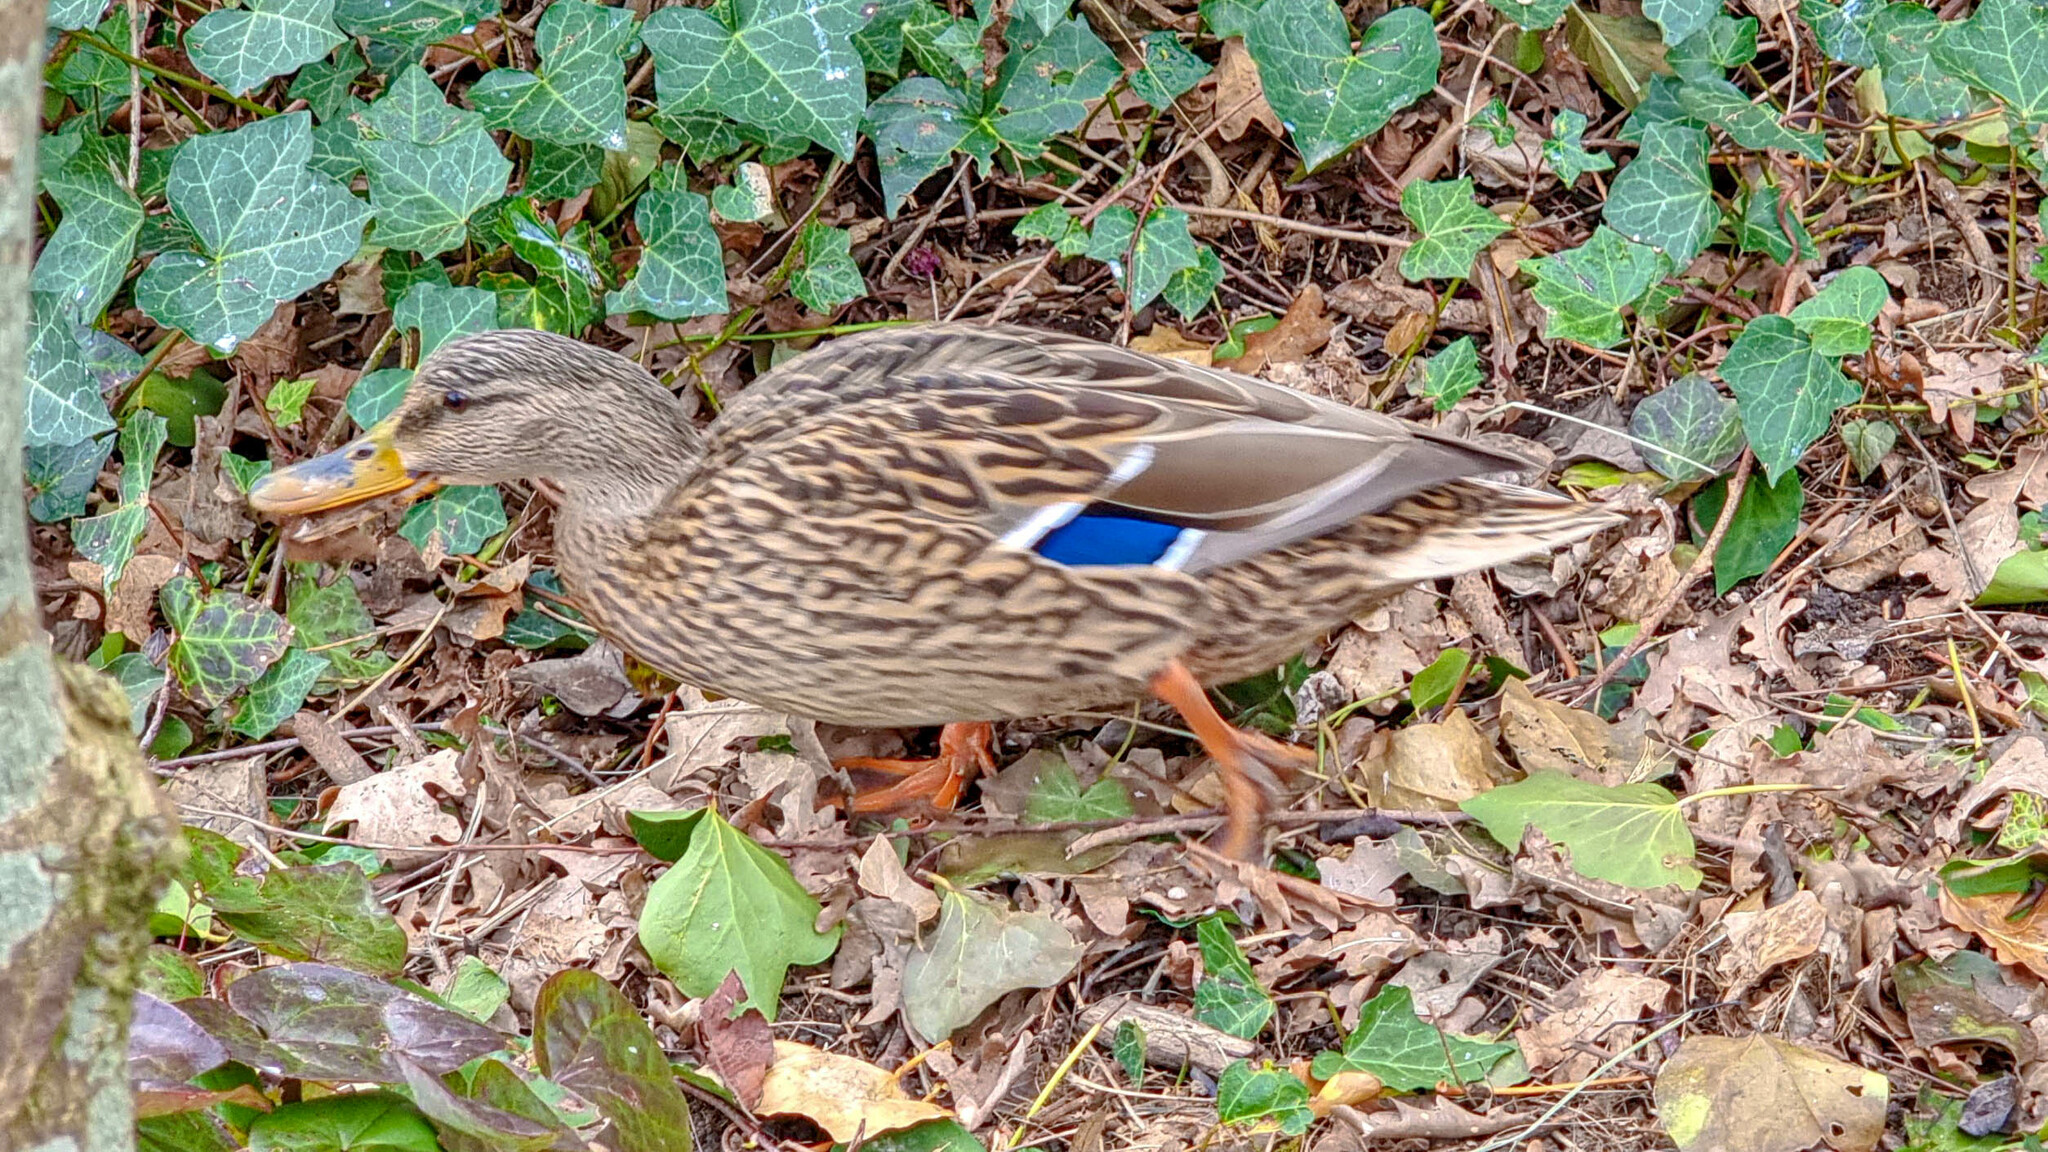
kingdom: Animalia
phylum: Chordata
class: Aves
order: Anseriformes
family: Anatidae
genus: Anas
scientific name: Anas platyrhynchos
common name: Mallard
